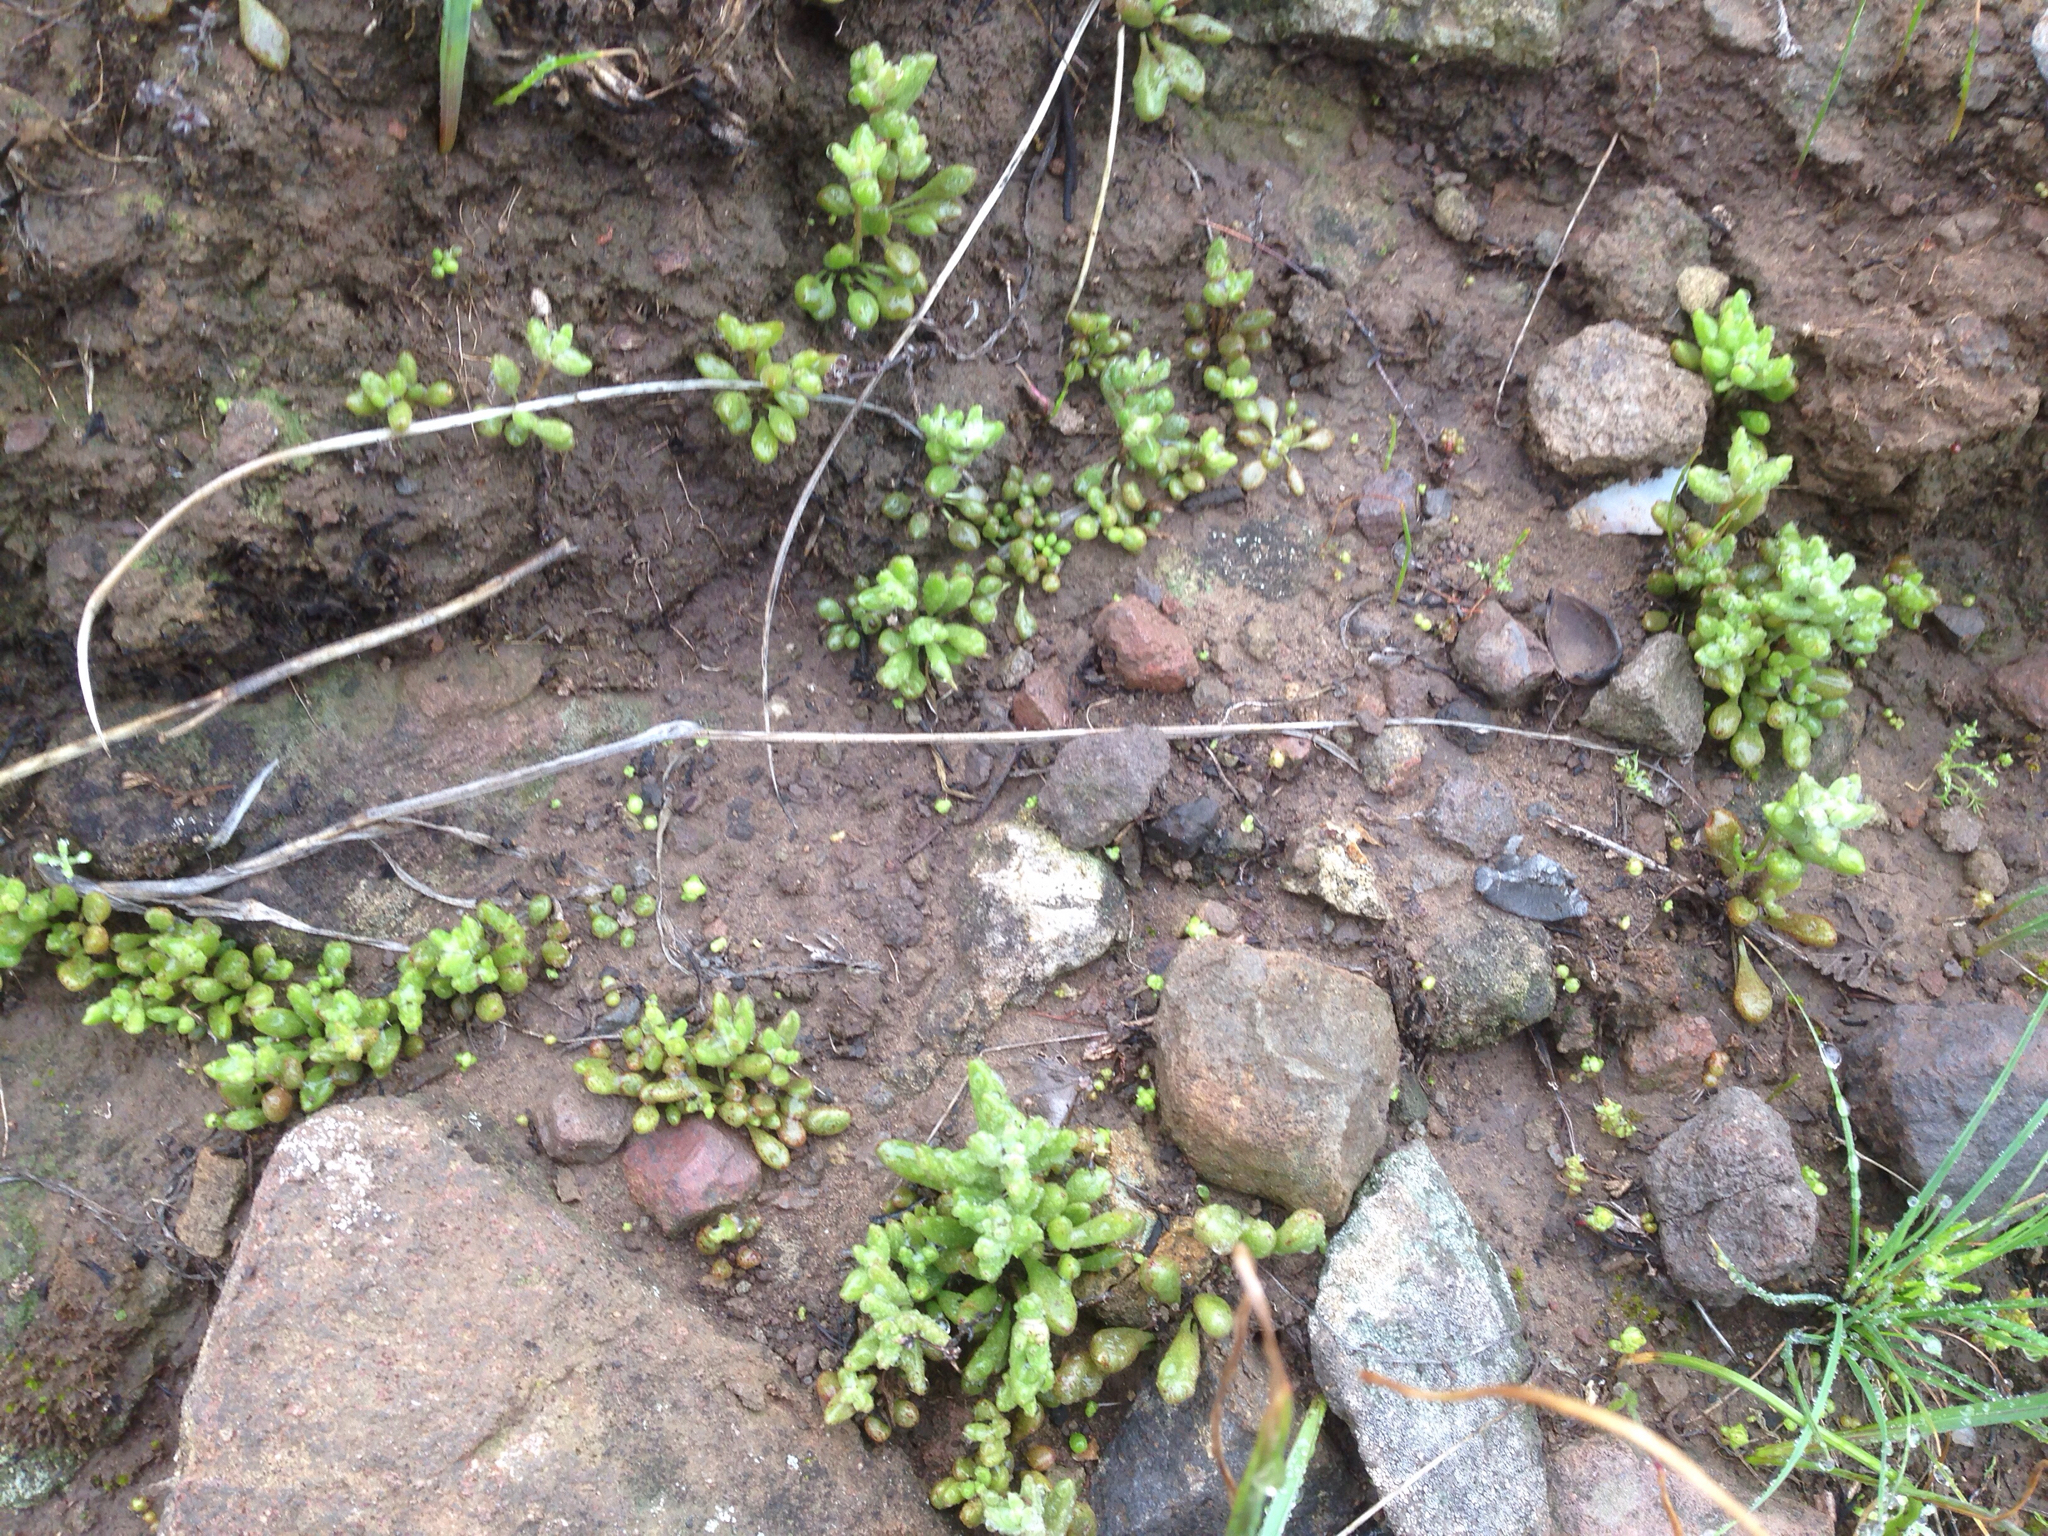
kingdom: Plantae
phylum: Tracheophyta
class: Magnoliopsida
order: Saxifragales
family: Crassulaceae
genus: Dudleya
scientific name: Dudleya blochmaniae
